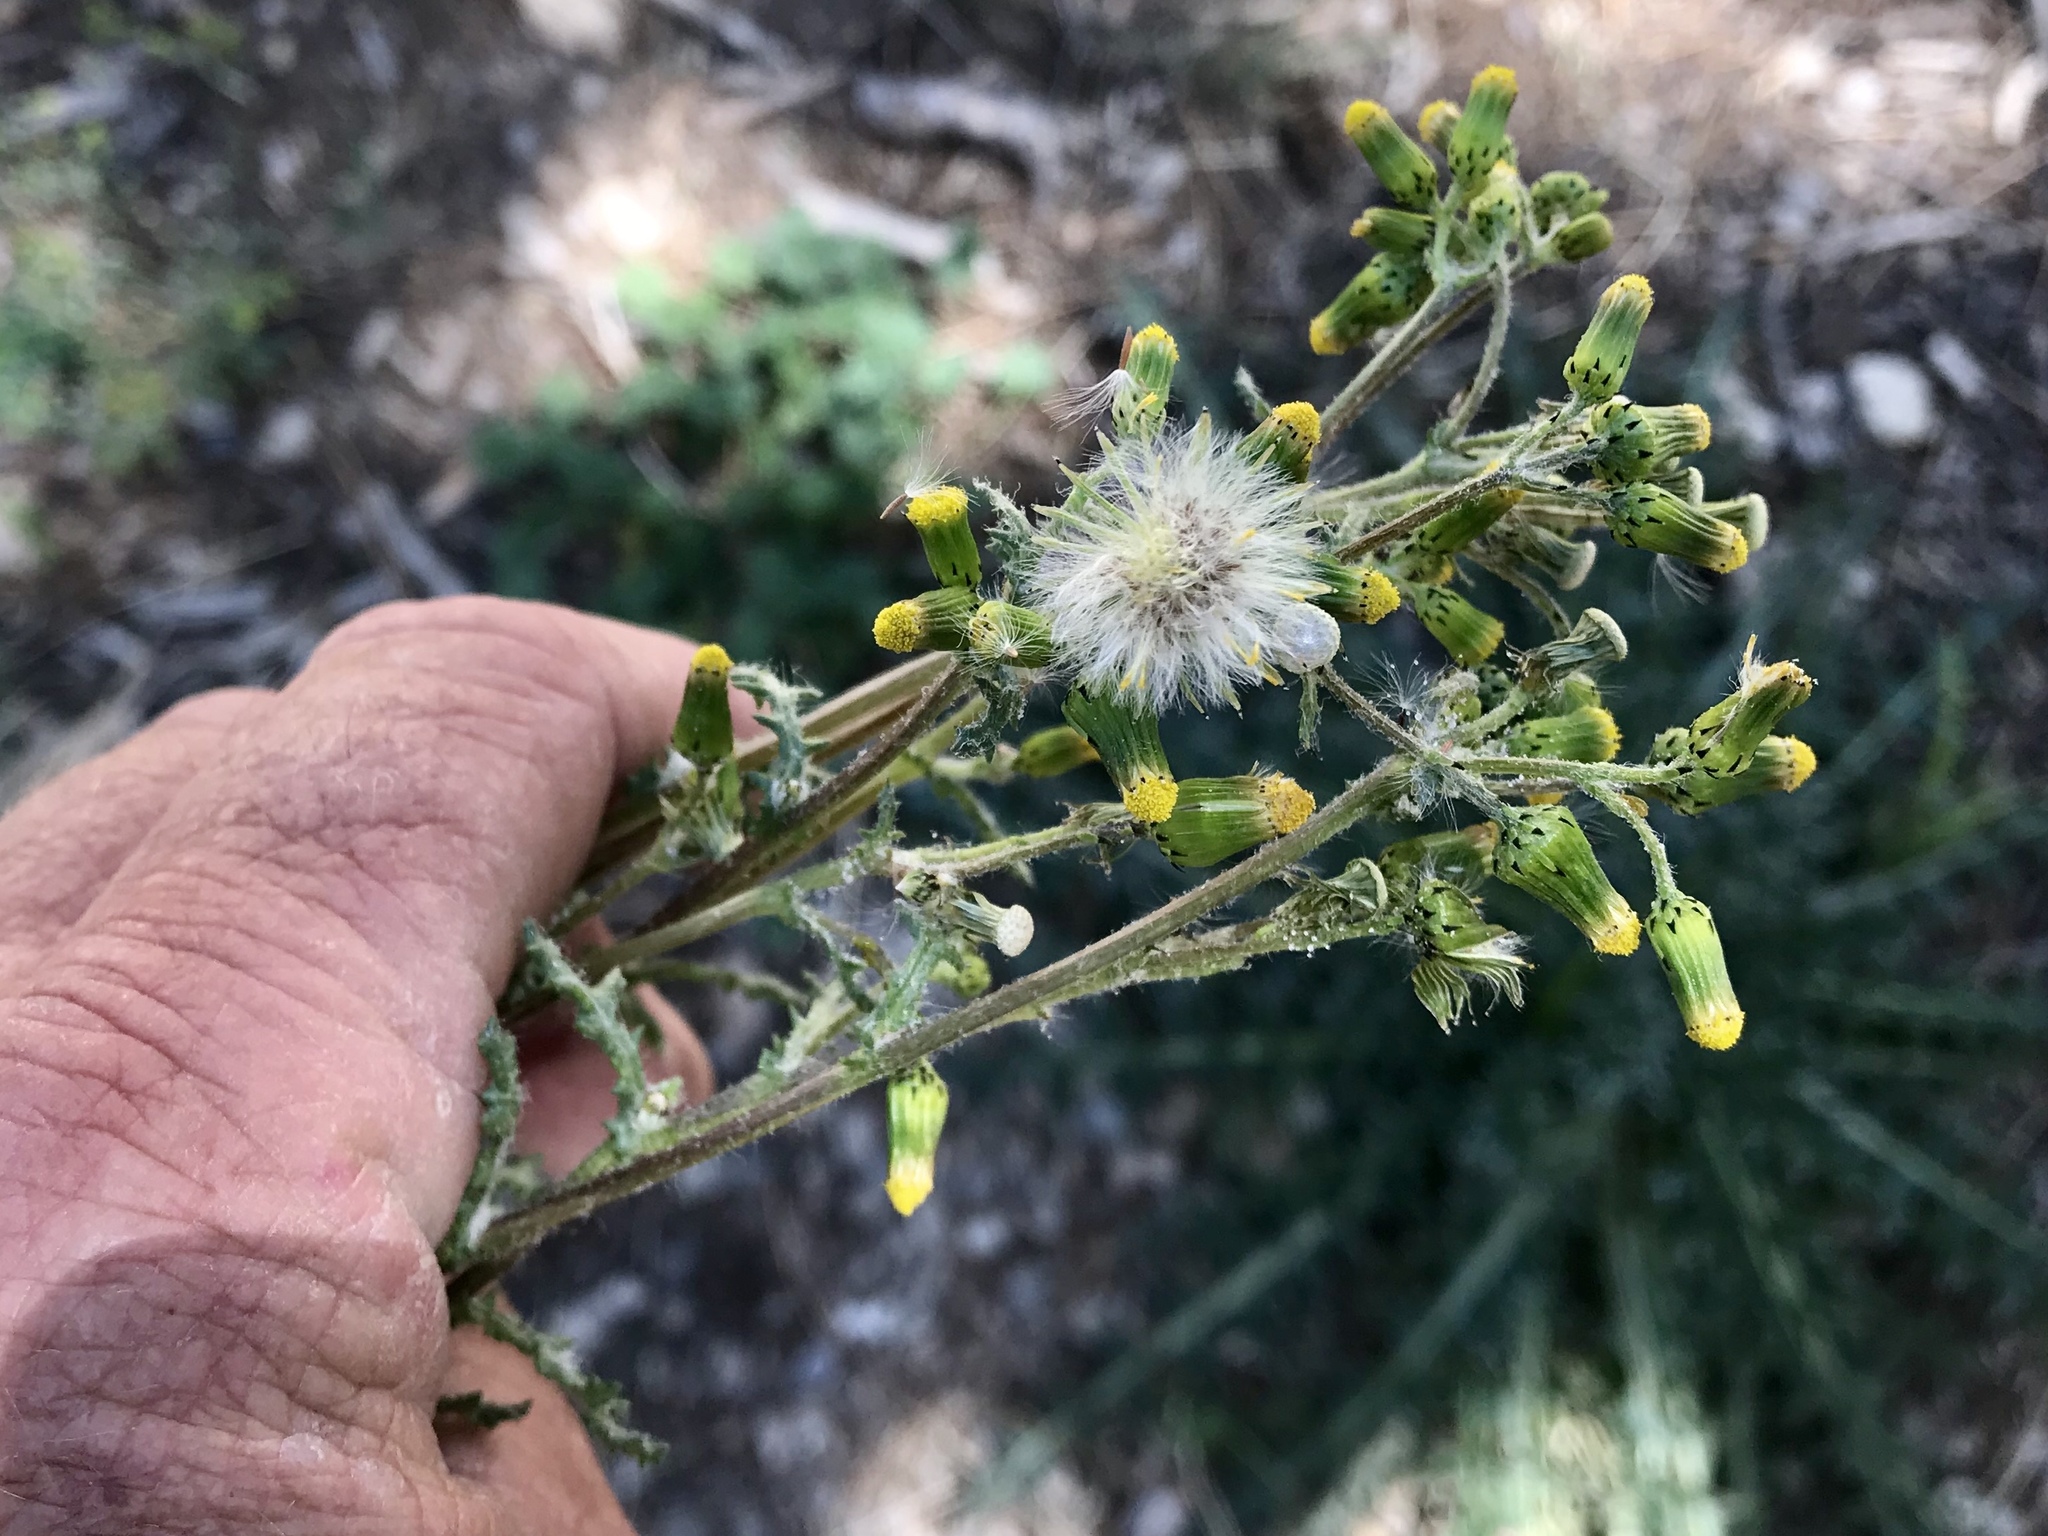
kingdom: Plantae
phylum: Tracheophyta
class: Magnoliopsida
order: Asterales
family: Asteraceae
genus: Senecio
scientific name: Senecio vulgaris
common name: Old-man-in-the-spring
